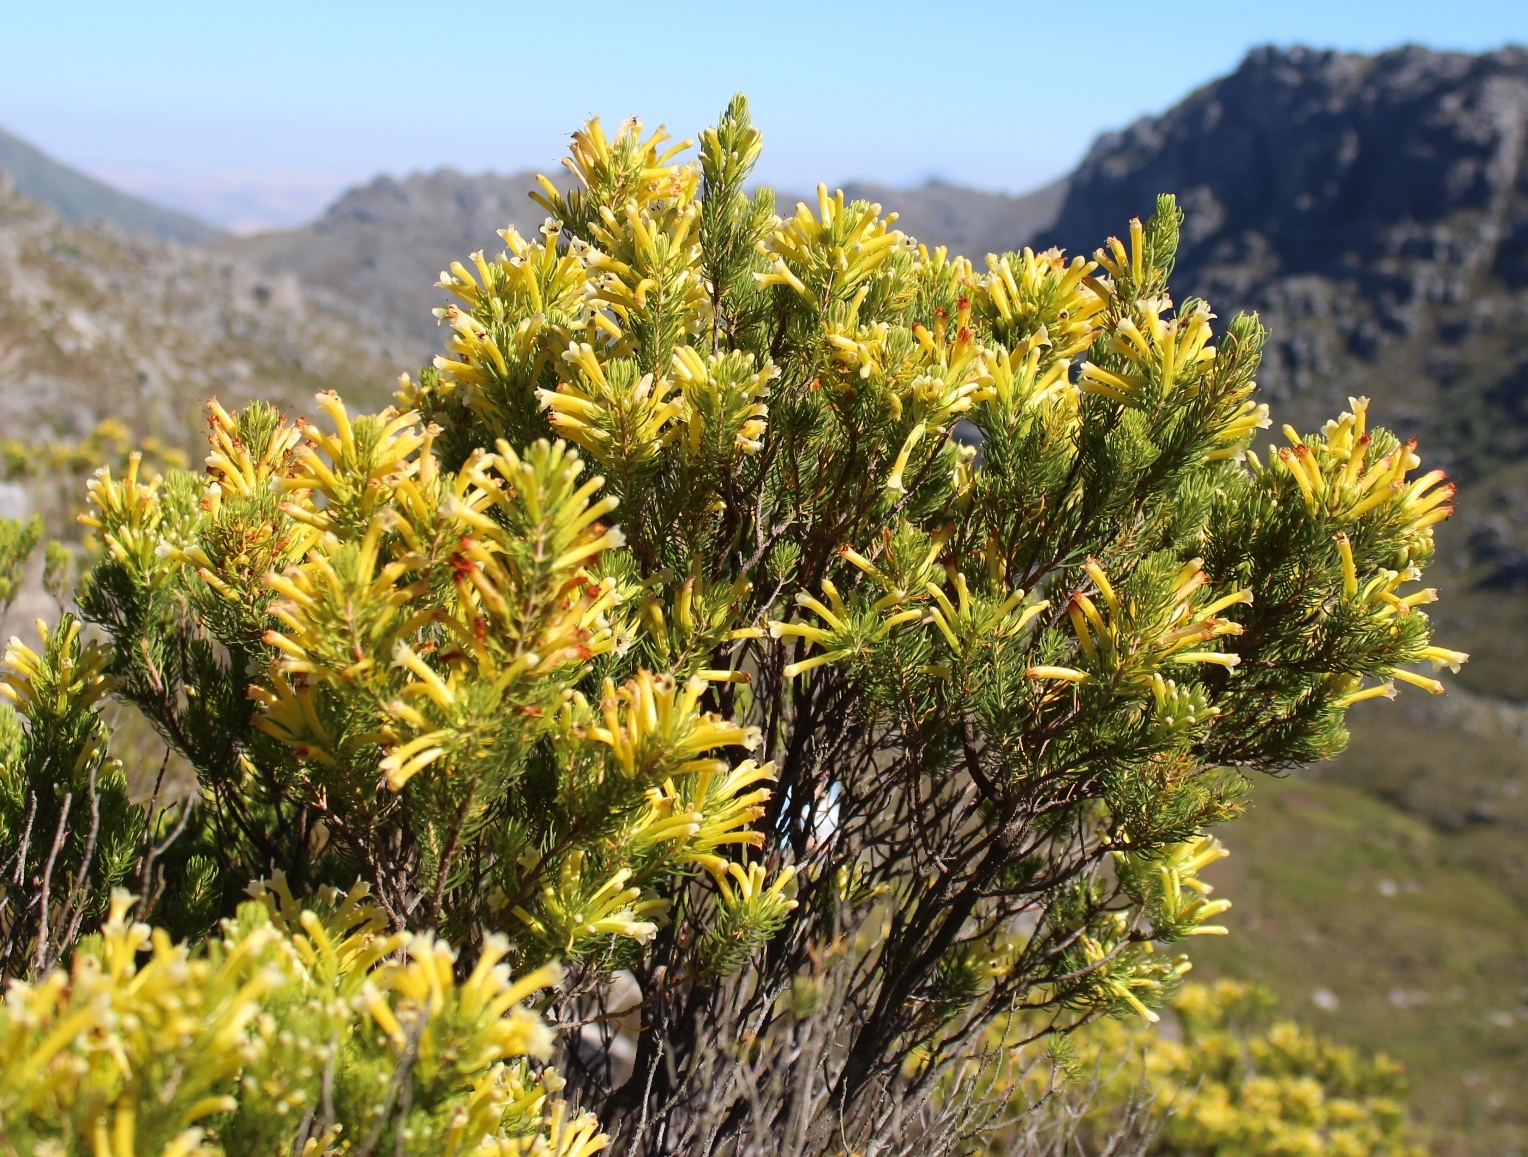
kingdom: Plantae
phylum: Tracheophyta
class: Magnoliopsida
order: Ericales
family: Ericaceae
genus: Erica
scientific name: Erica pinea
